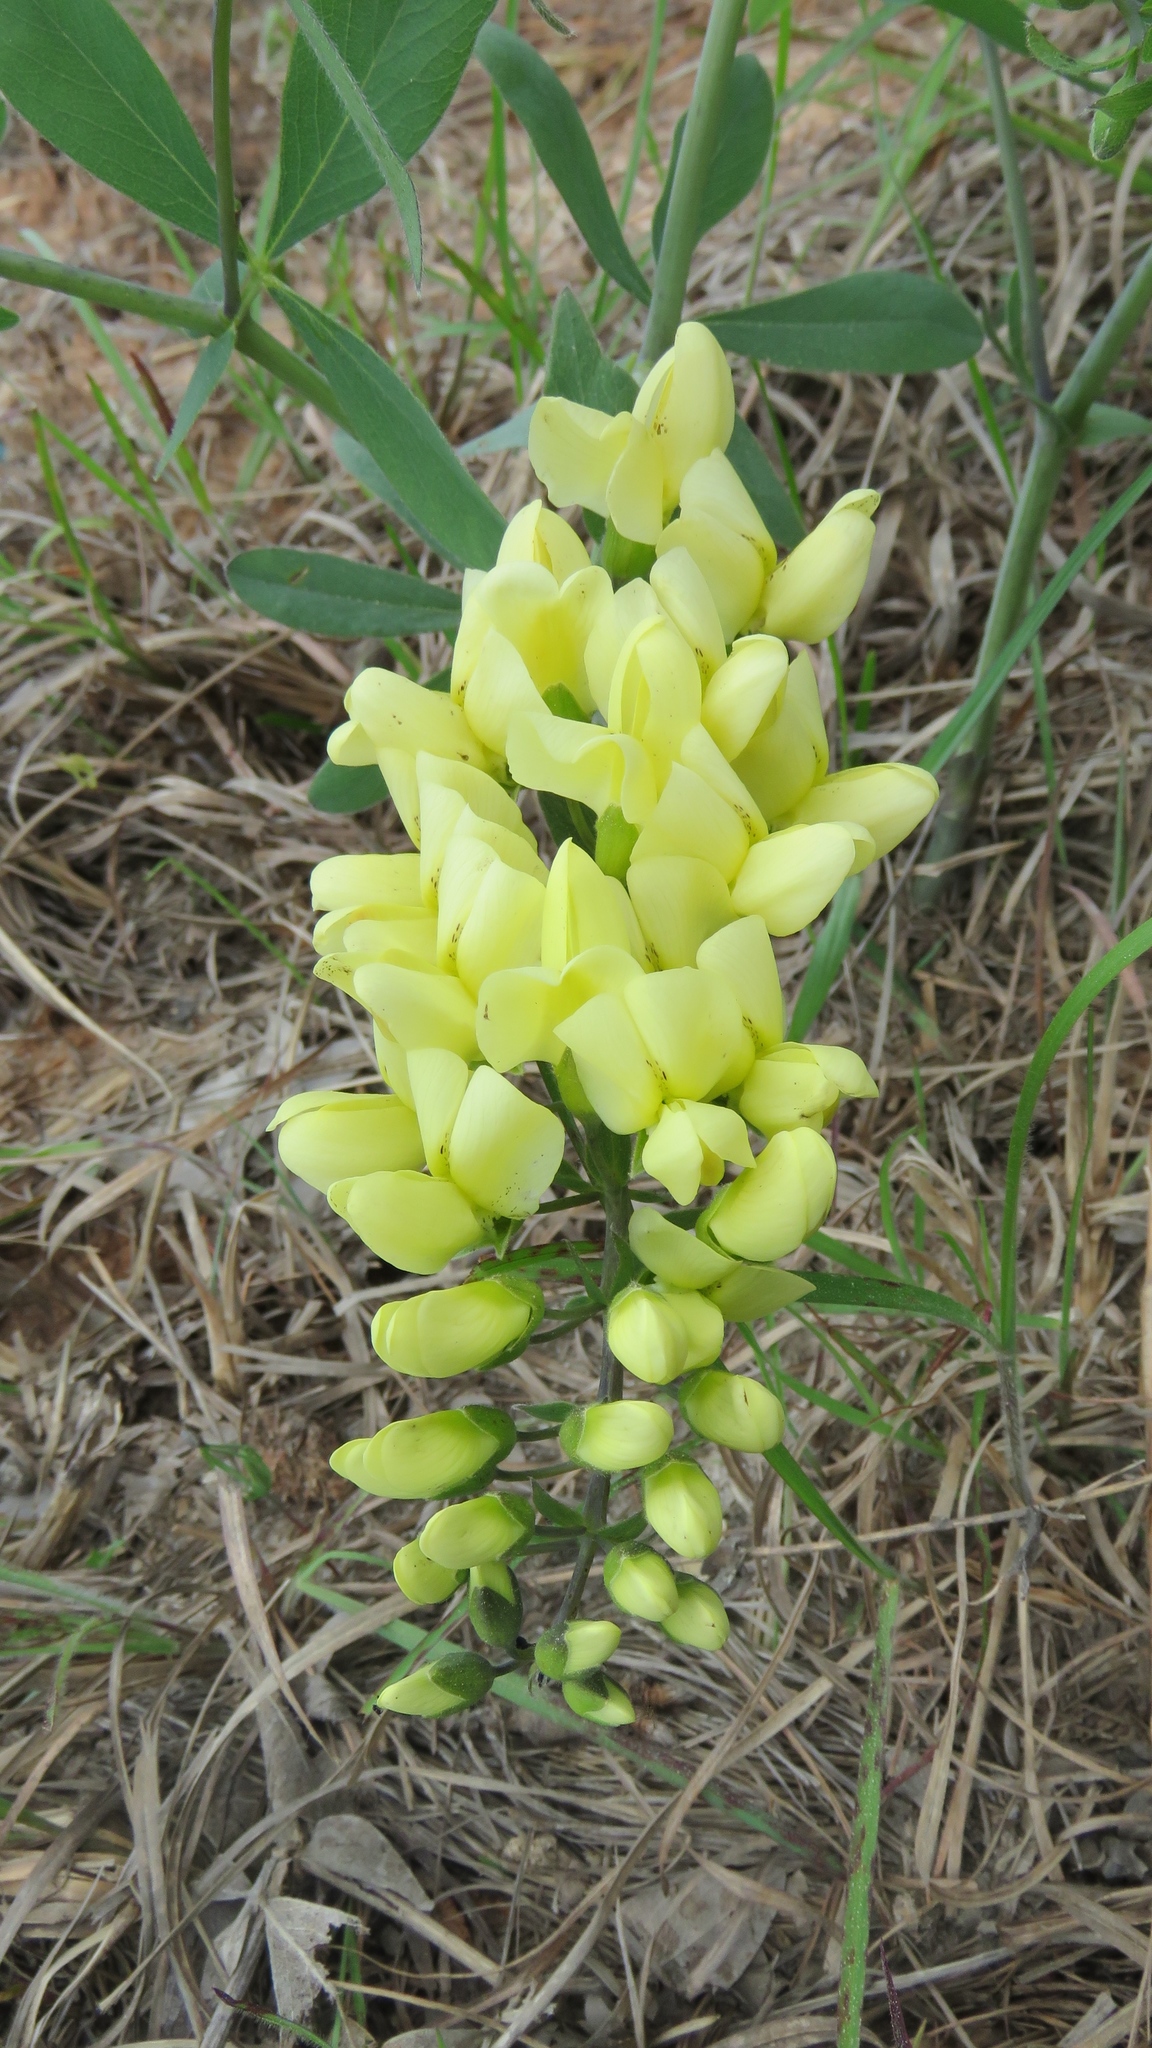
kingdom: Plantae
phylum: Tracheophyta
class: Magnoliopsida
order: Fabales
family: Fabaceae
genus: Baptisia
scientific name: Baptisia bracteata
